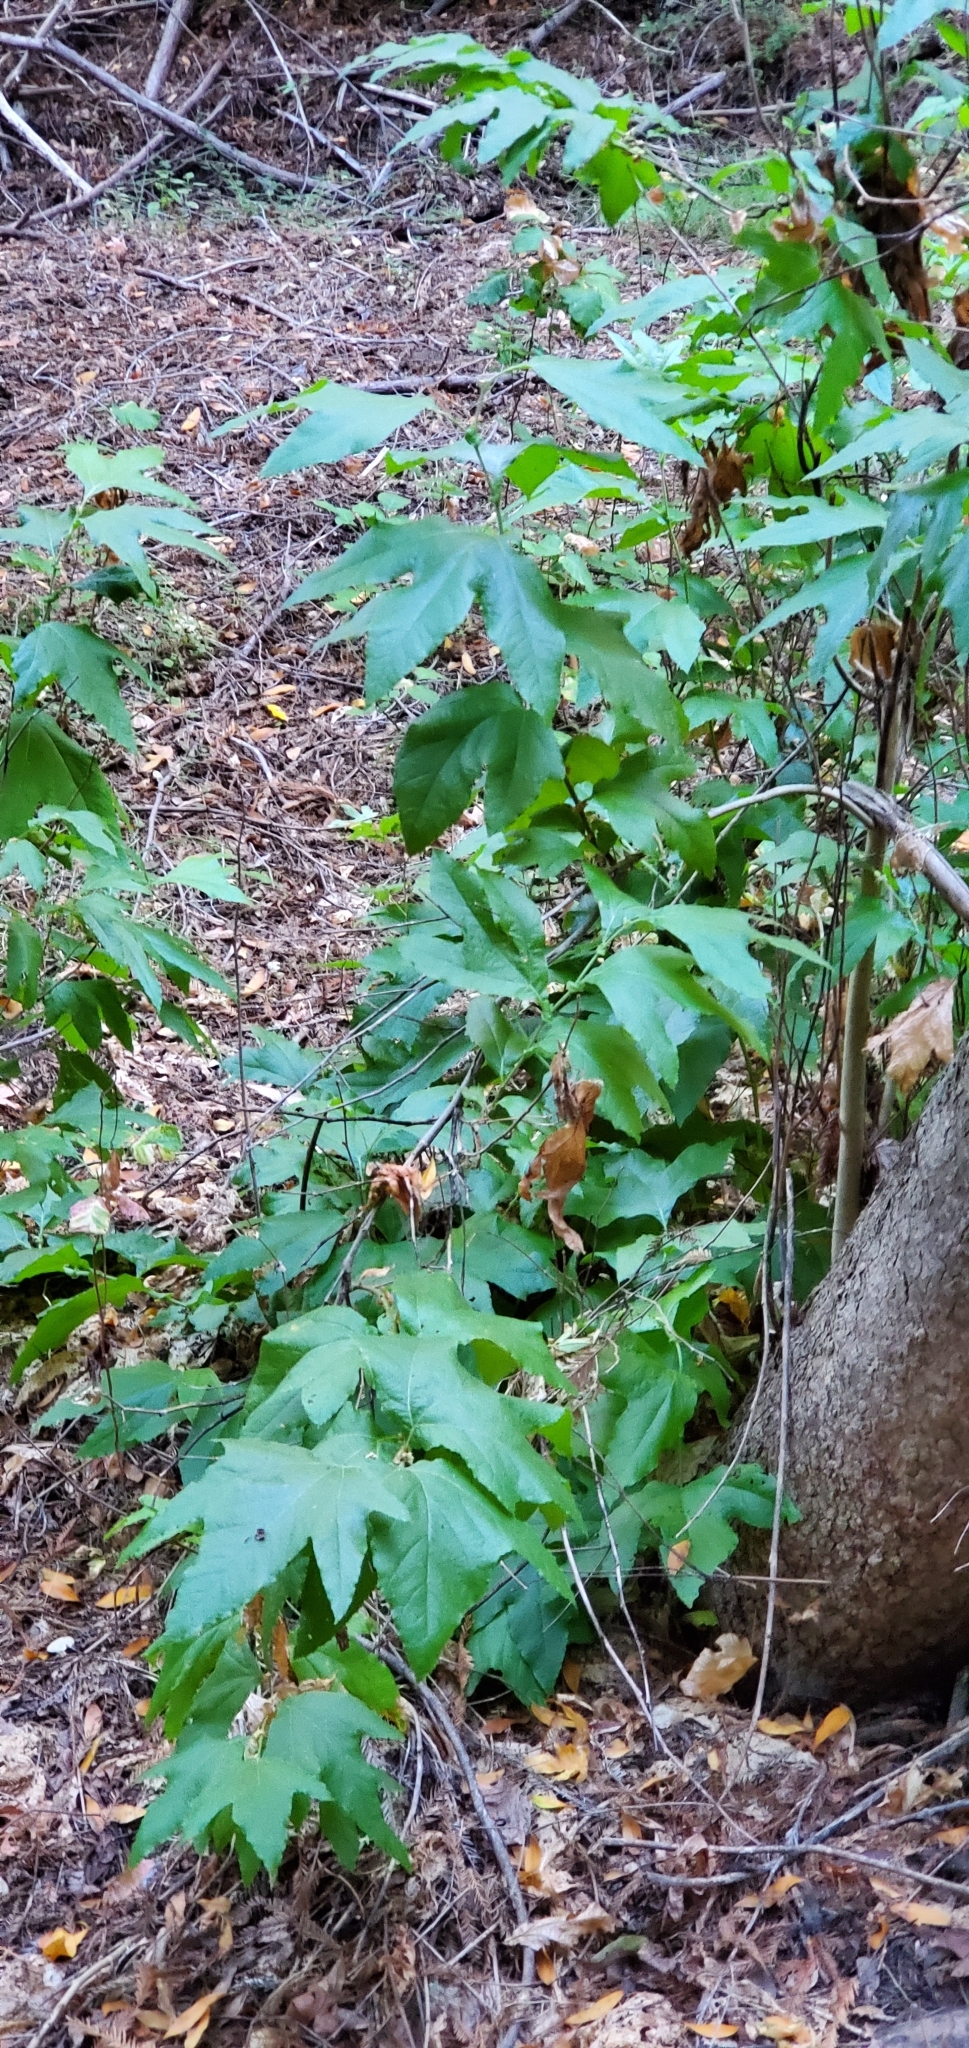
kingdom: Plantae
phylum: Tracheophyta
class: Magnoliopsida
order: Proteales
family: Platanaceae
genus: Platanus
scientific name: Platanus racemosa
